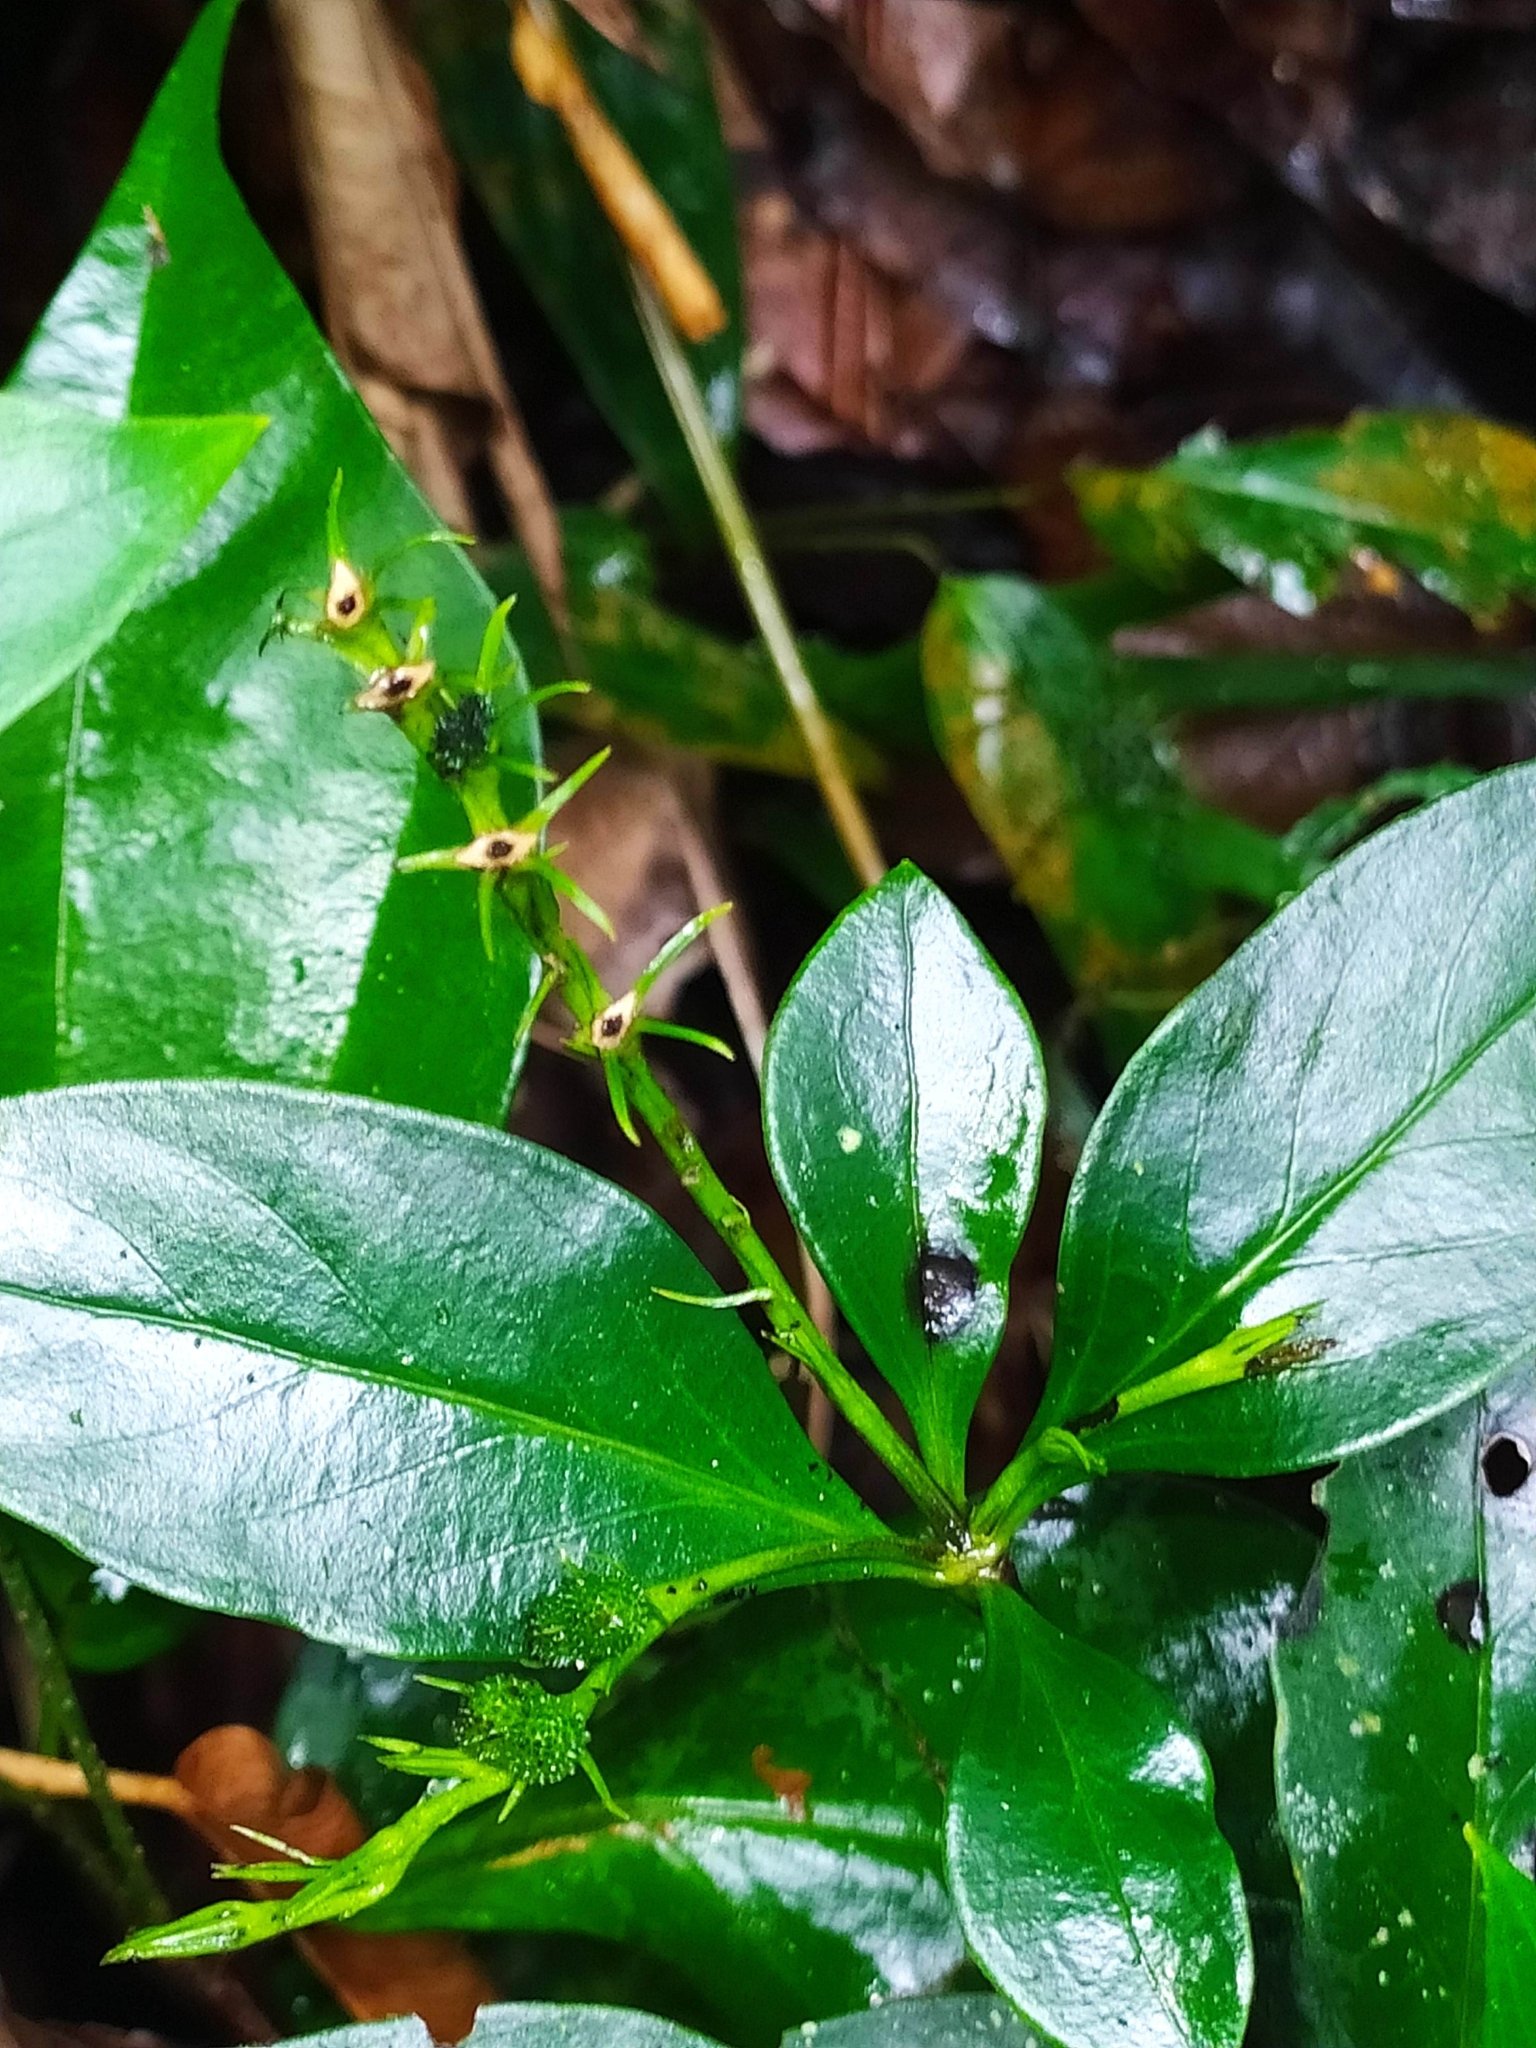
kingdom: Plantae
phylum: Tracheophyta
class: Magnoliopsida
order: Gentianales
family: Loganiaceae
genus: Spigelia
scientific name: Spigelia
